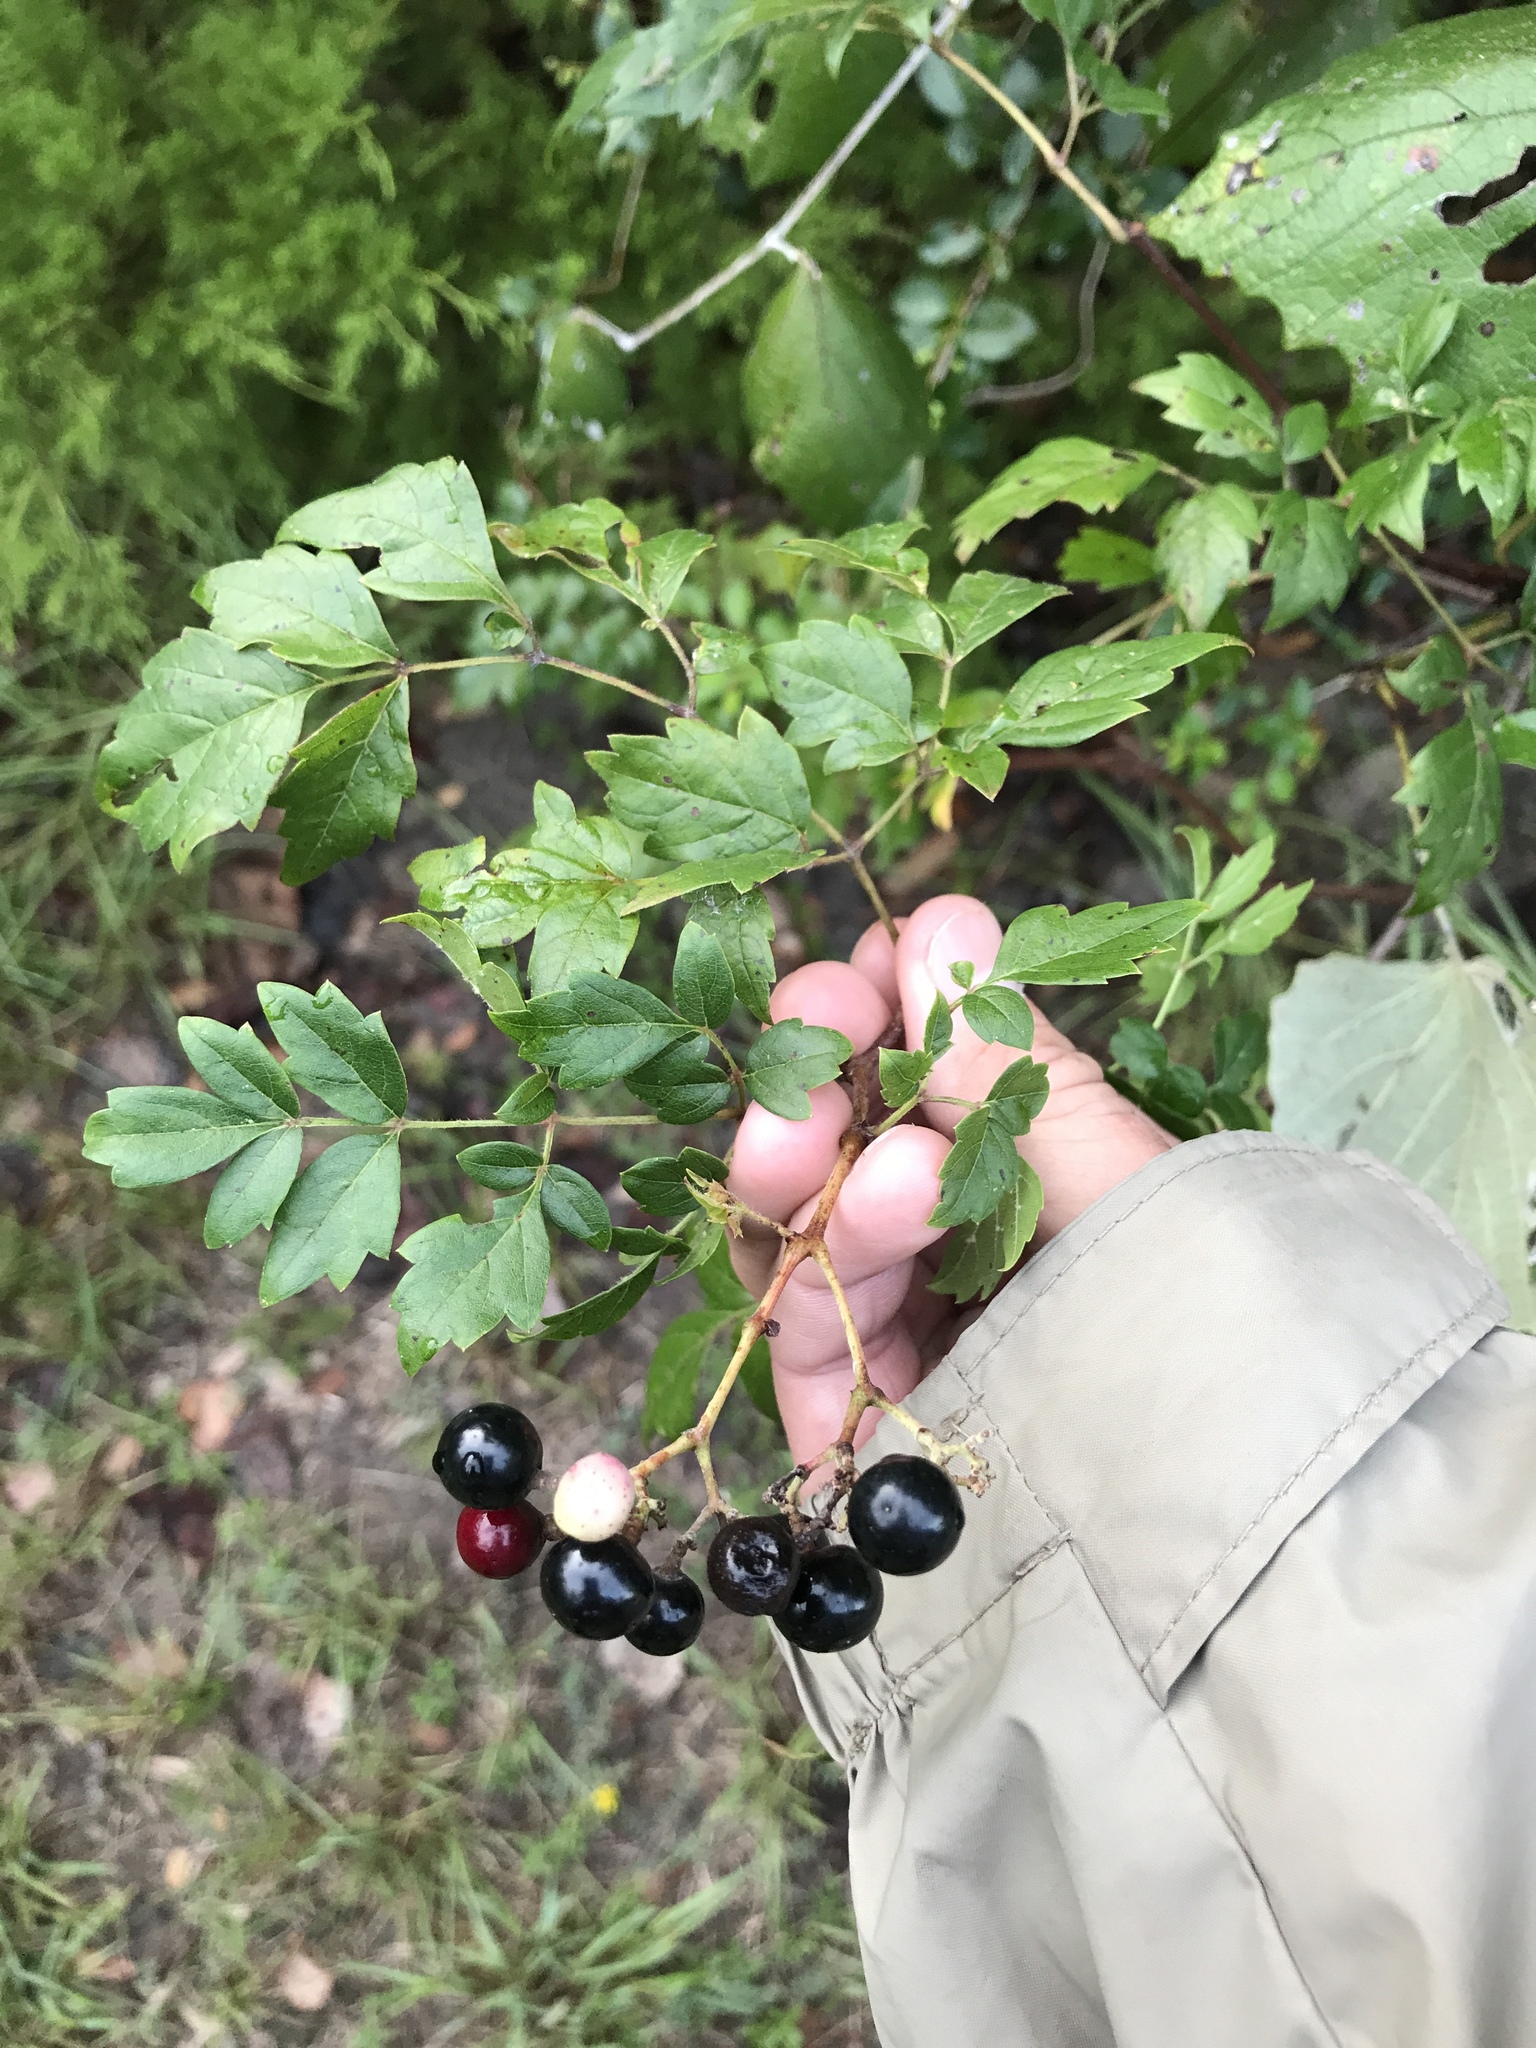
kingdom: Plantae
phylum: Tracheophyta
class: Magnoliopsida
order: Vitales
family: Vitaceae
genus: Nekemias
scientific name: Nekemias arborea
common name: Peppervine
